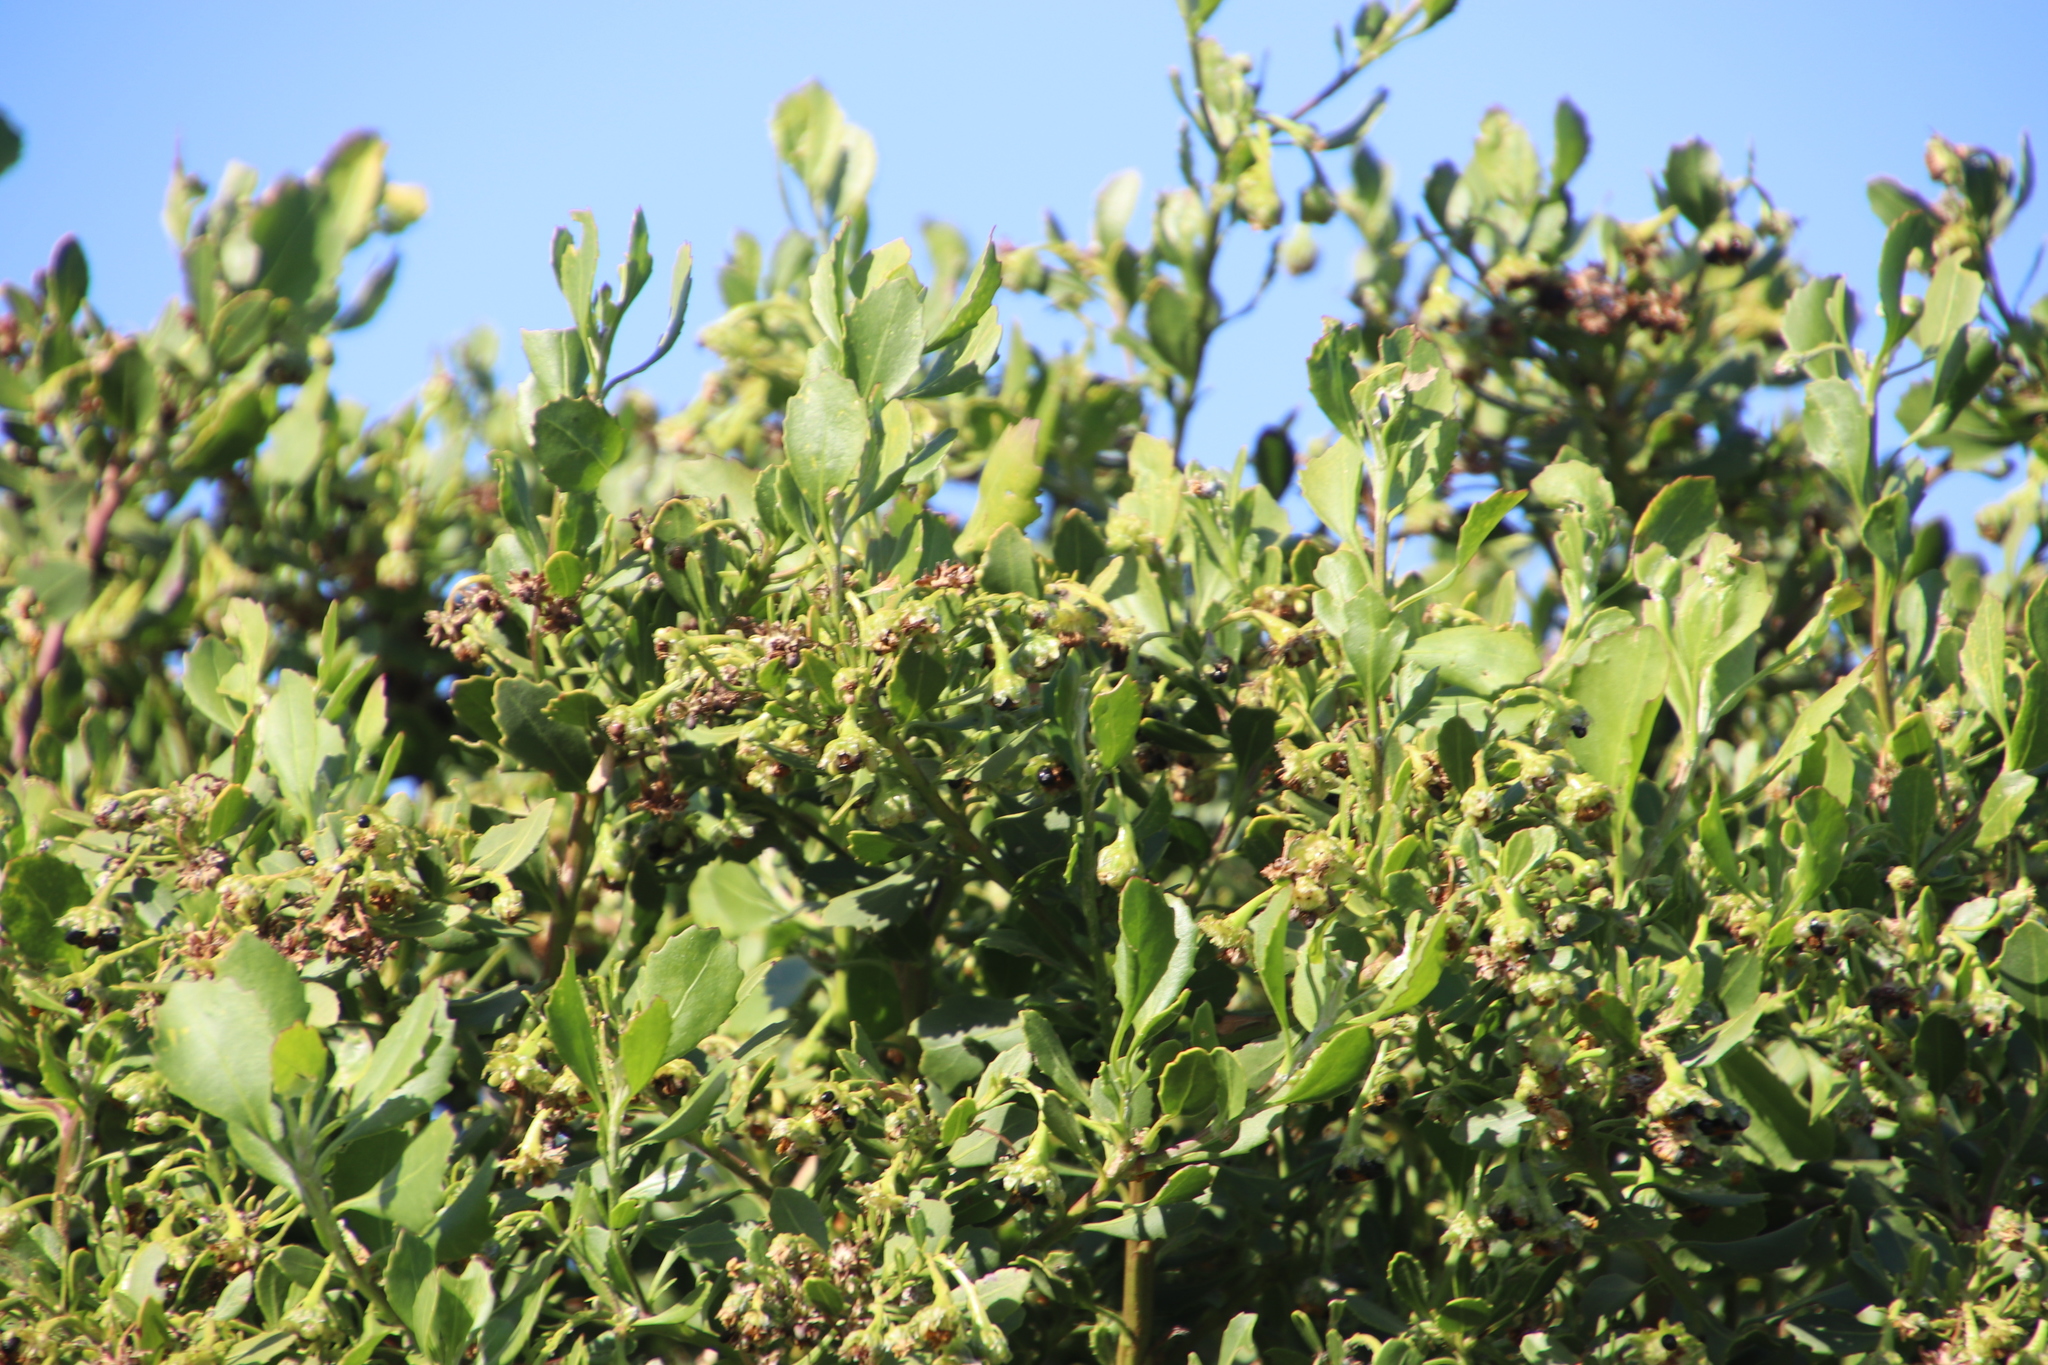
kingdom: Plantae
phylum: Tracheophyta
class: Magnoliopsida
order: Asterales
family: Asteraceae
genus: Osteospermum
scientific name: Osteospermum moniliferum
